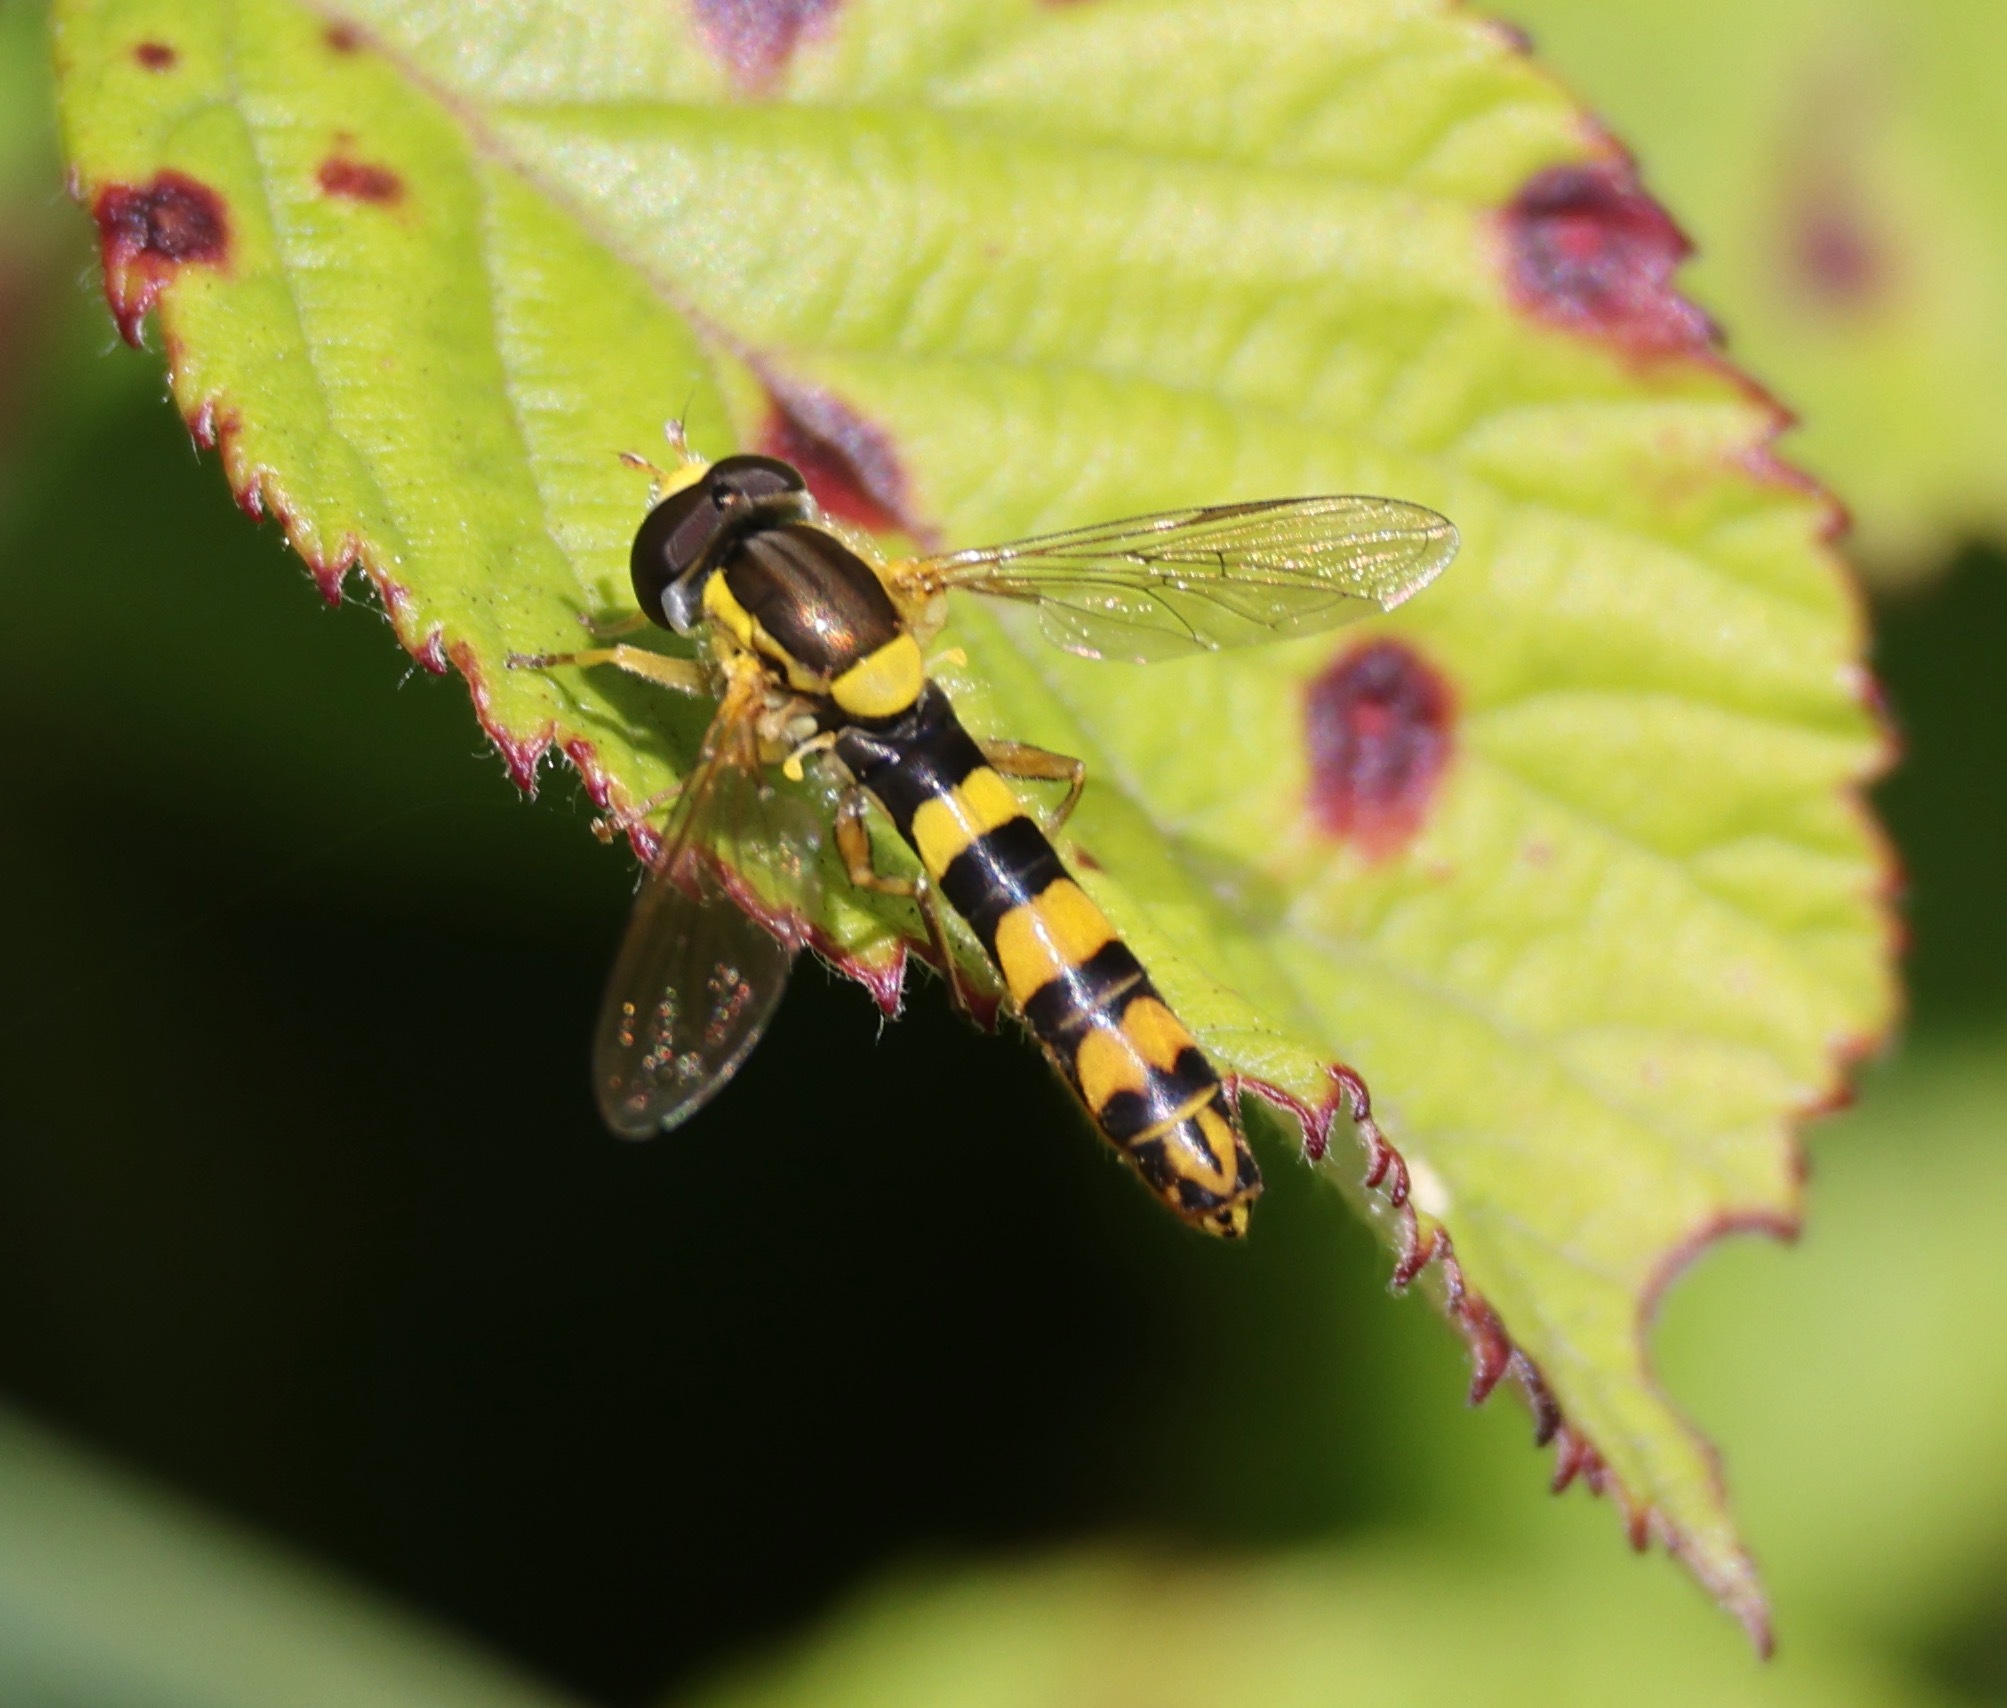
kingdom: Animalia
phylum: Arthropoda
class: Insecta
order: Diptera
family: Syrphidae
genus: Sphaerophoria
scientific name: Sphaerophoria scripta
